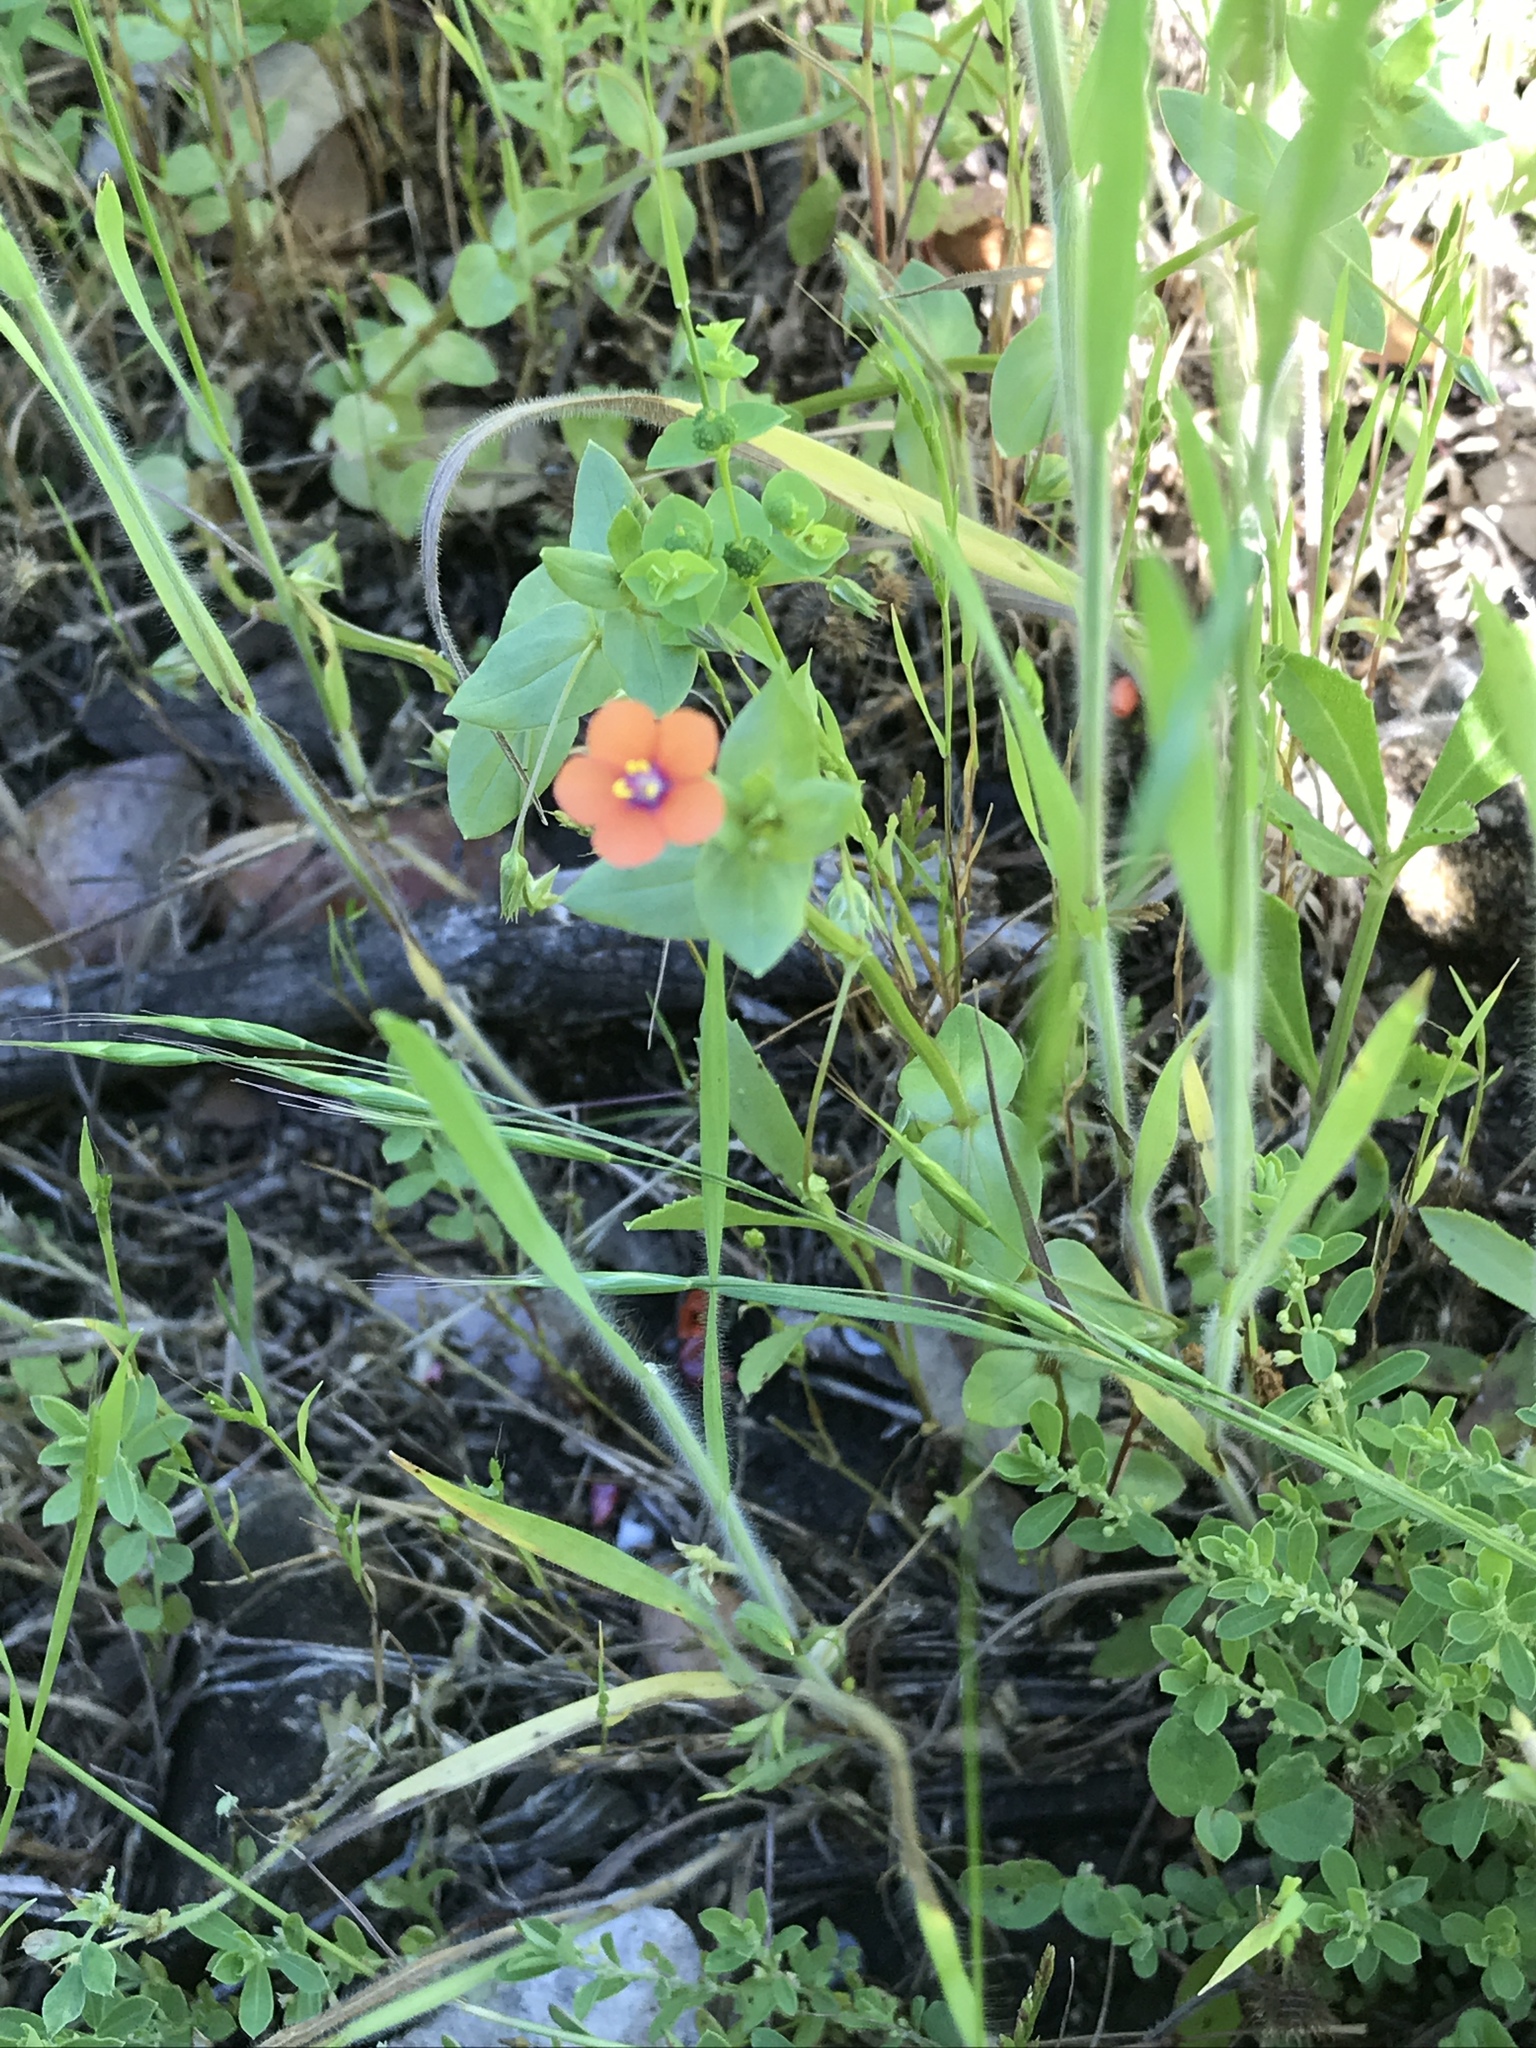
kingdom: Plantae
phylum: Tracheophyta
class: Magnoliopsida
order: Ericales
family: Primulaceae
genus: Lysimachia
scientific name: Lysimachia arvensis
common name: Scarlet pimpernel
